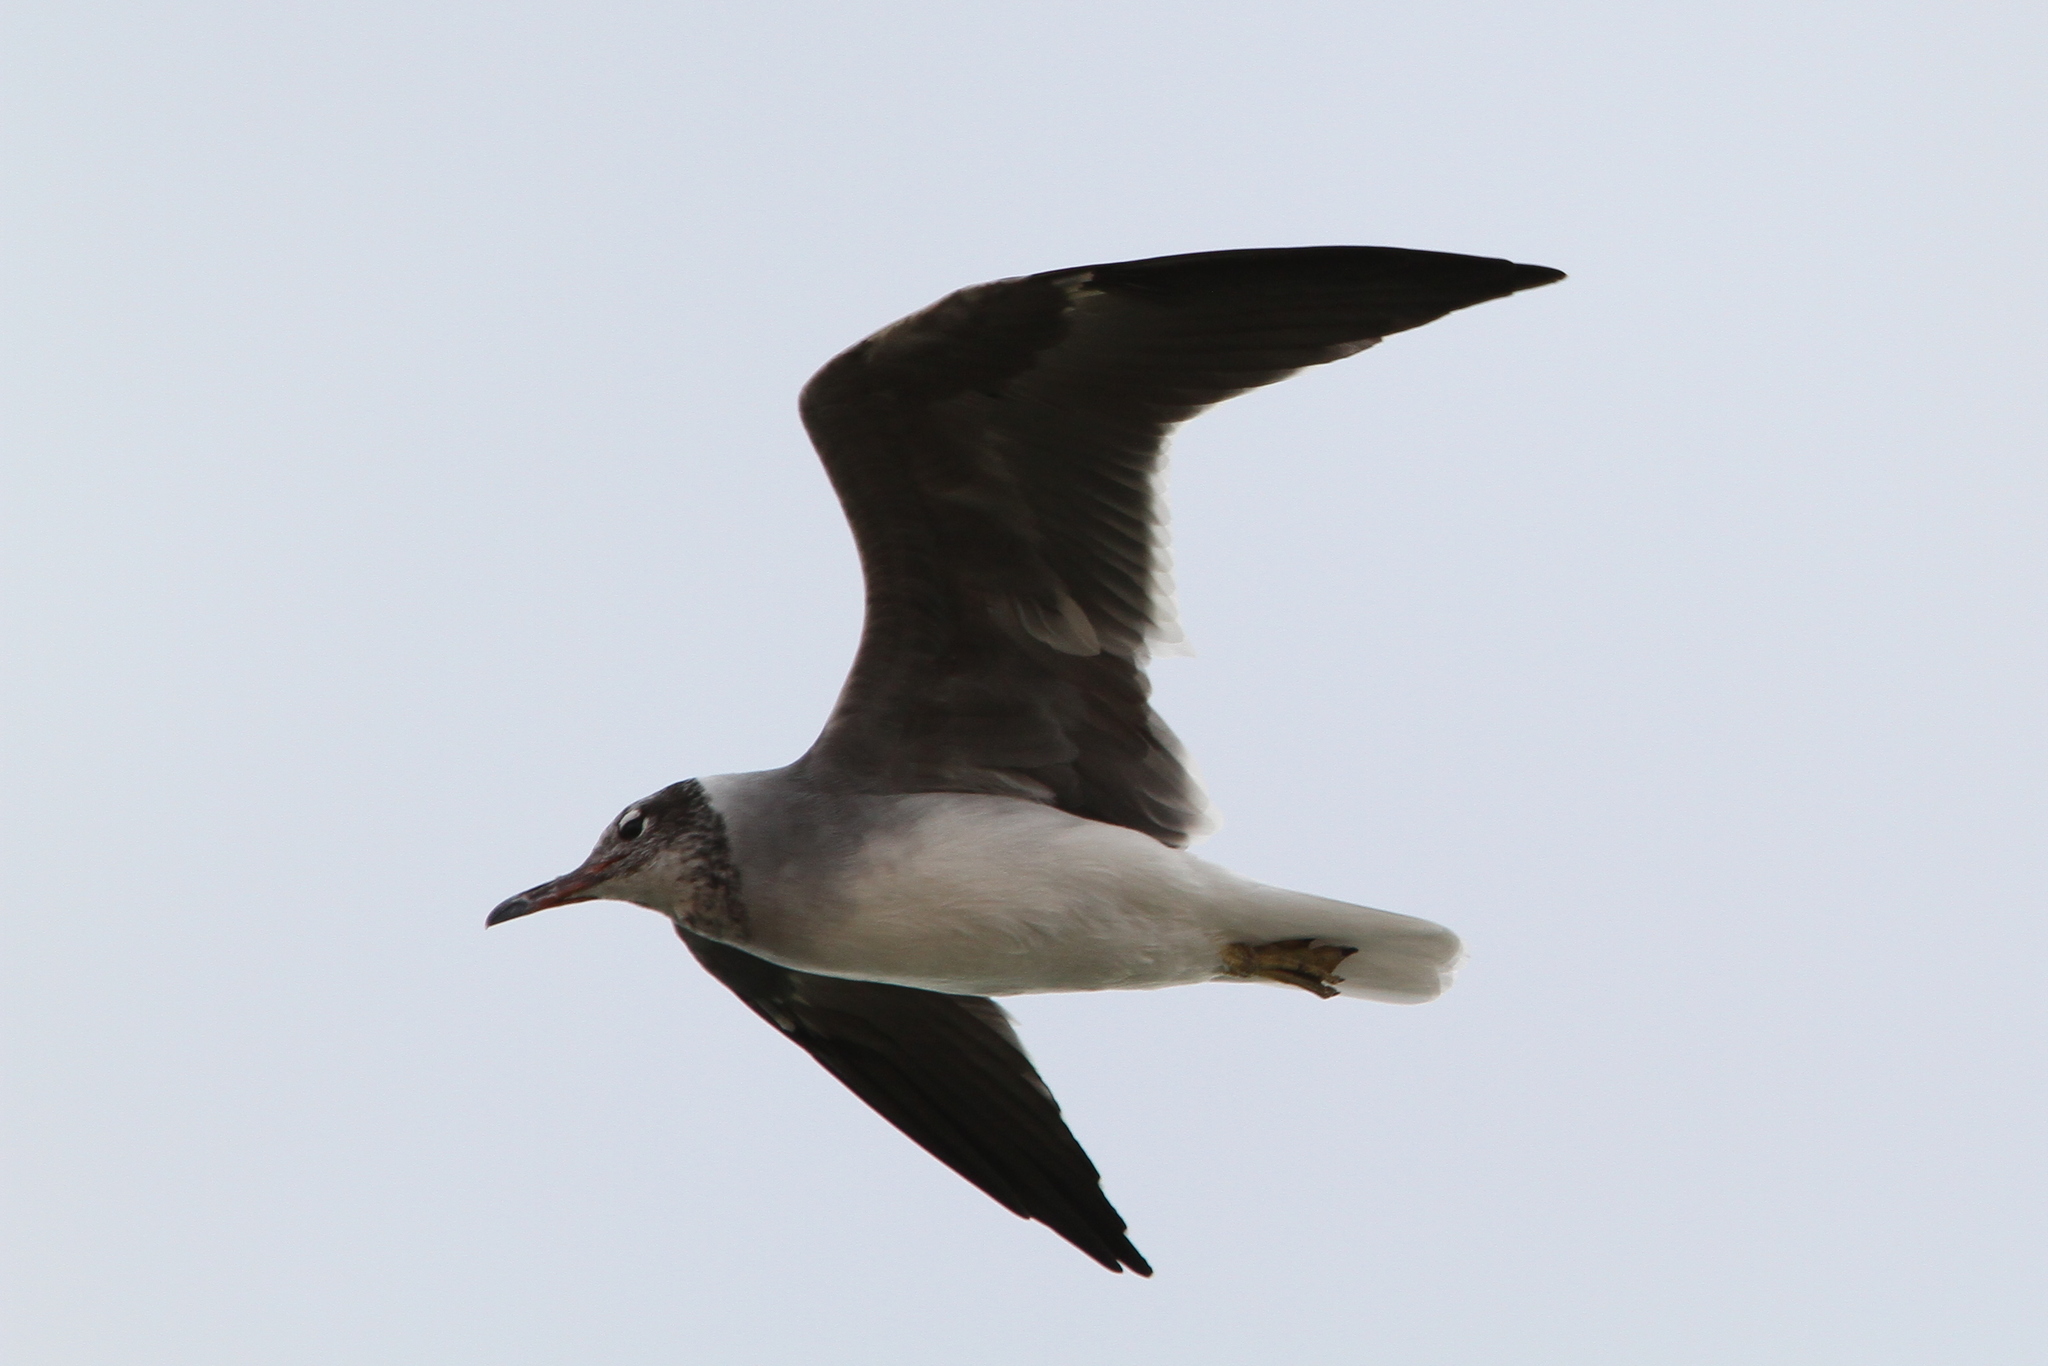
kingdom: Animalia
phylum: Chordata
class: Aves
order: Charadriiformes
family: Laridae
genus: Ichthyaetus
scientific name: Ichthyaetus leucophthalmus
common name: White-eyed gull
